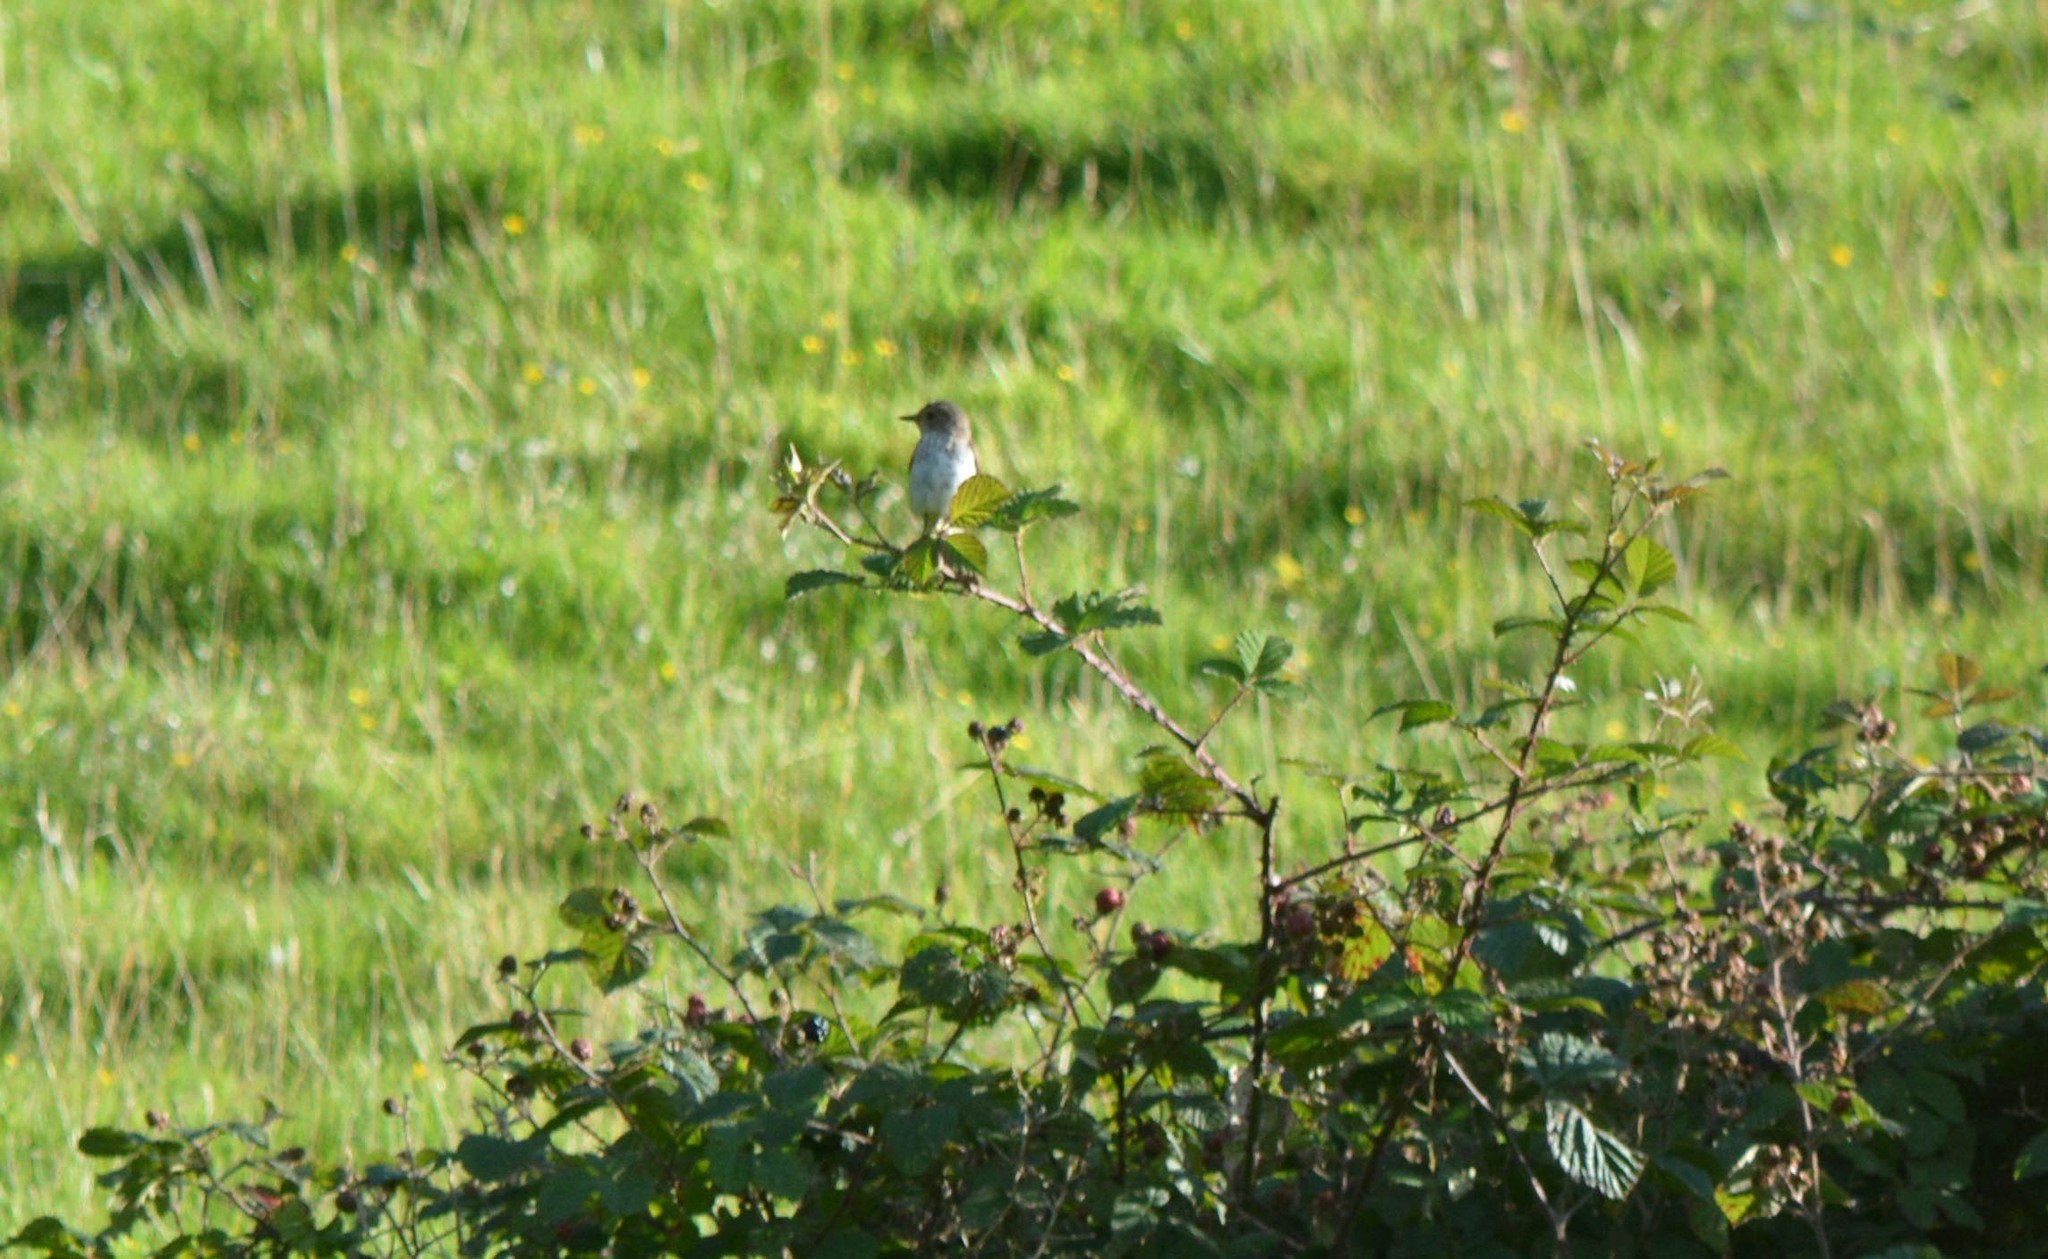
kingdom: Animalia
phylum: Chordata
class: Aves
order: Passeriformes
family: Muscicapidae
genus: Muscicapa
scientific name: Muscicapa striata
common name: Spotted flycatcher
